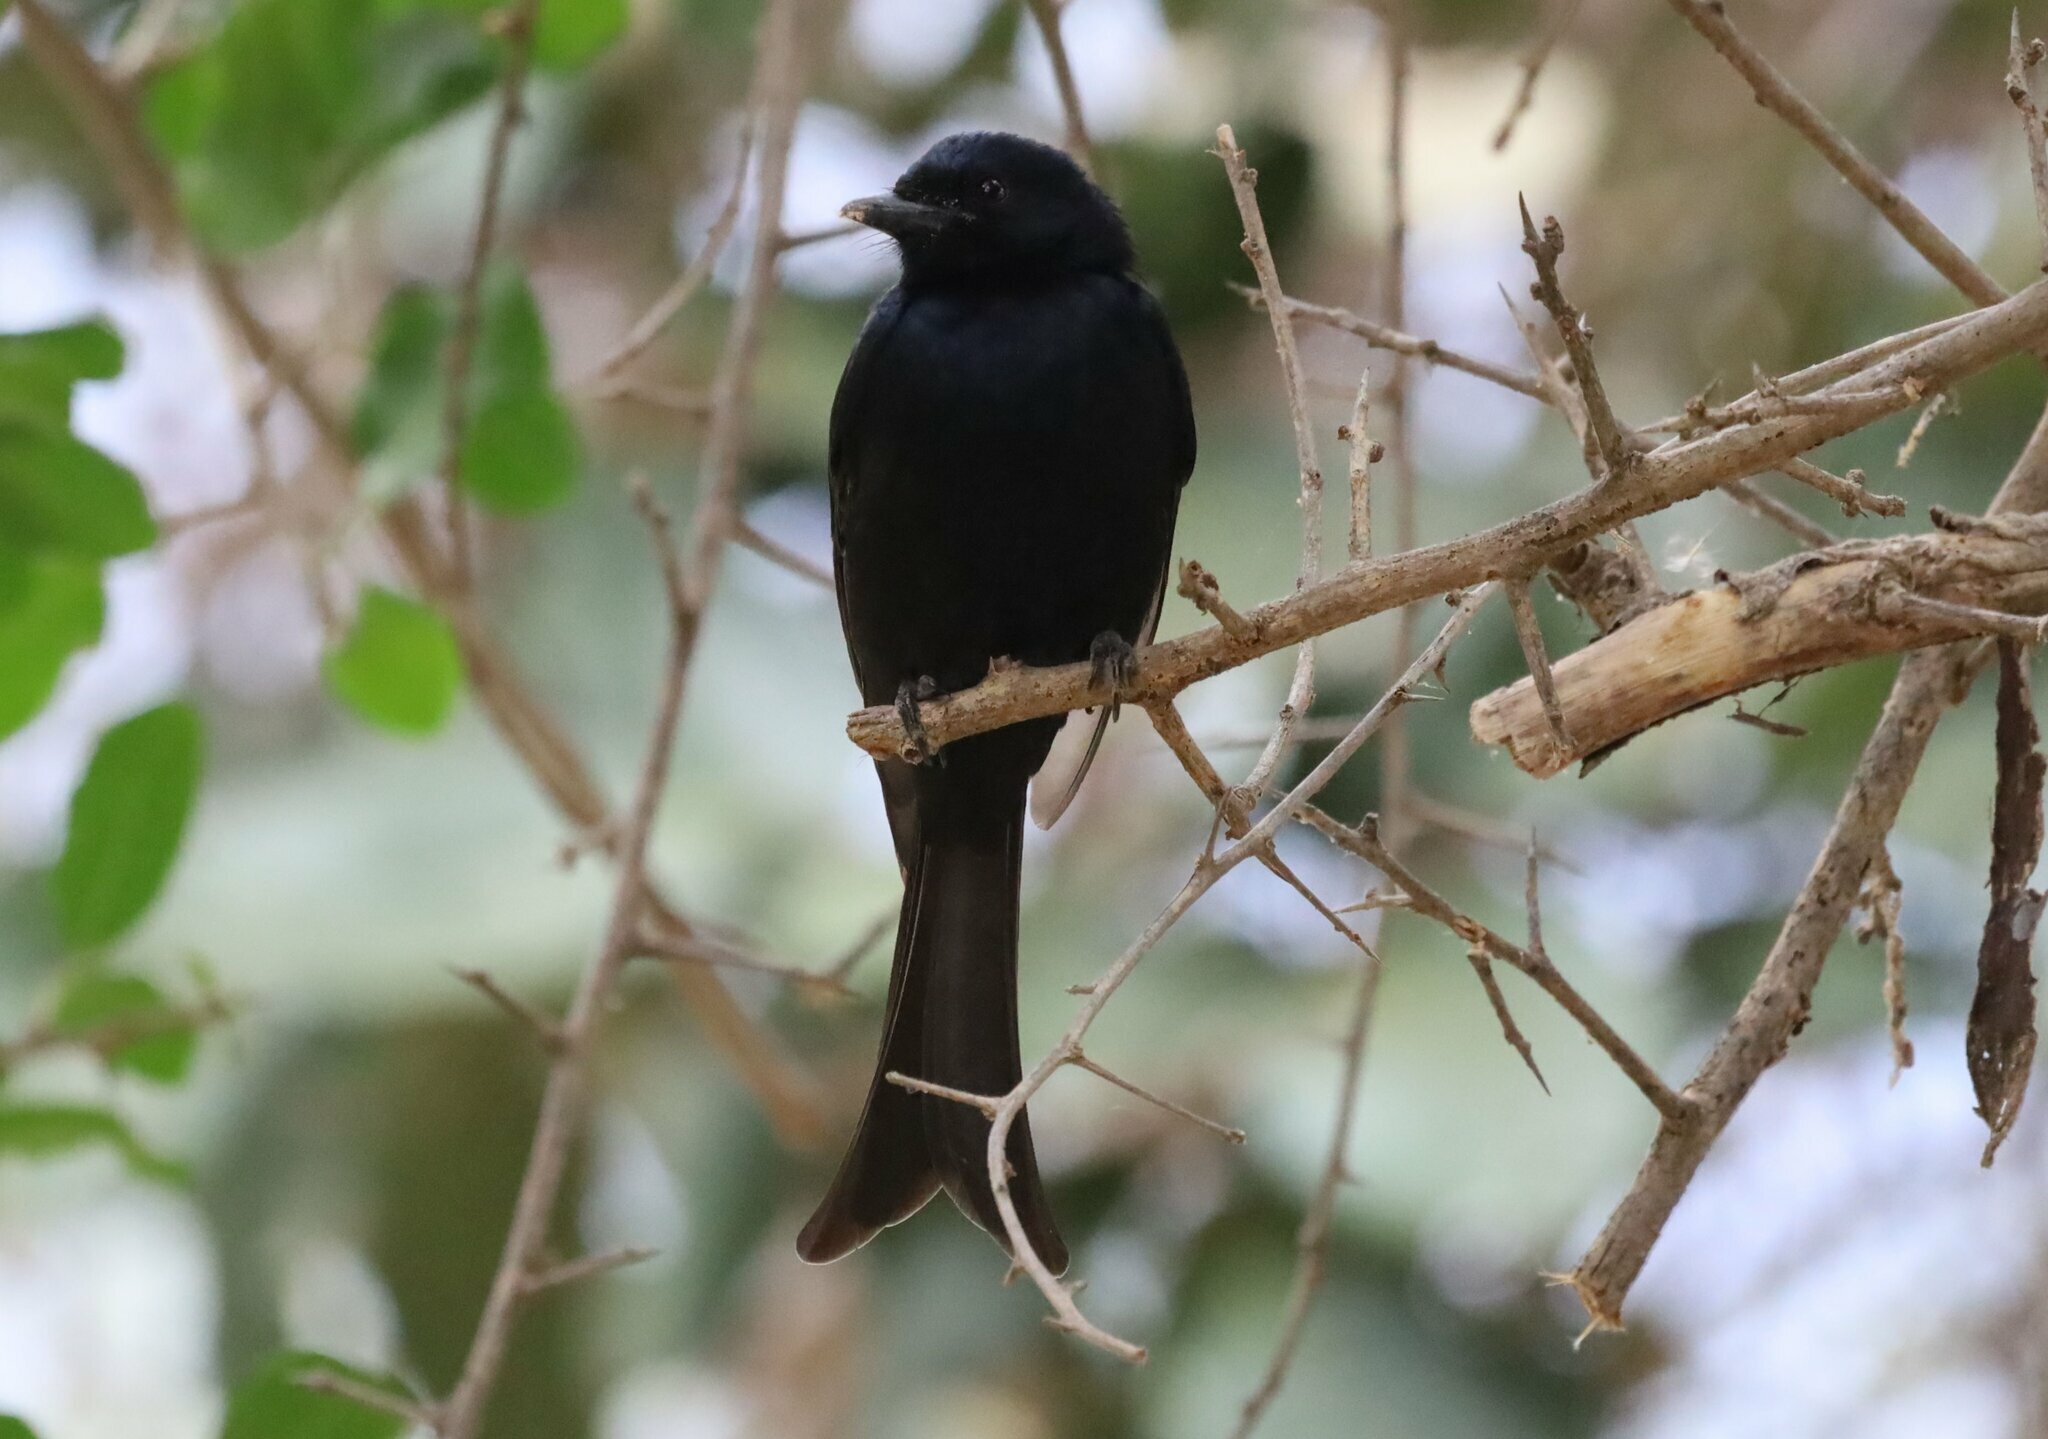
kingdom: Animalia
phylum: Chordata
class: Aves
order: Passeriformes
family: Dicruridae
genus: Dicrurus
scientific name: Dicrurus adsimilis
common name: Fork-tailed drongo
